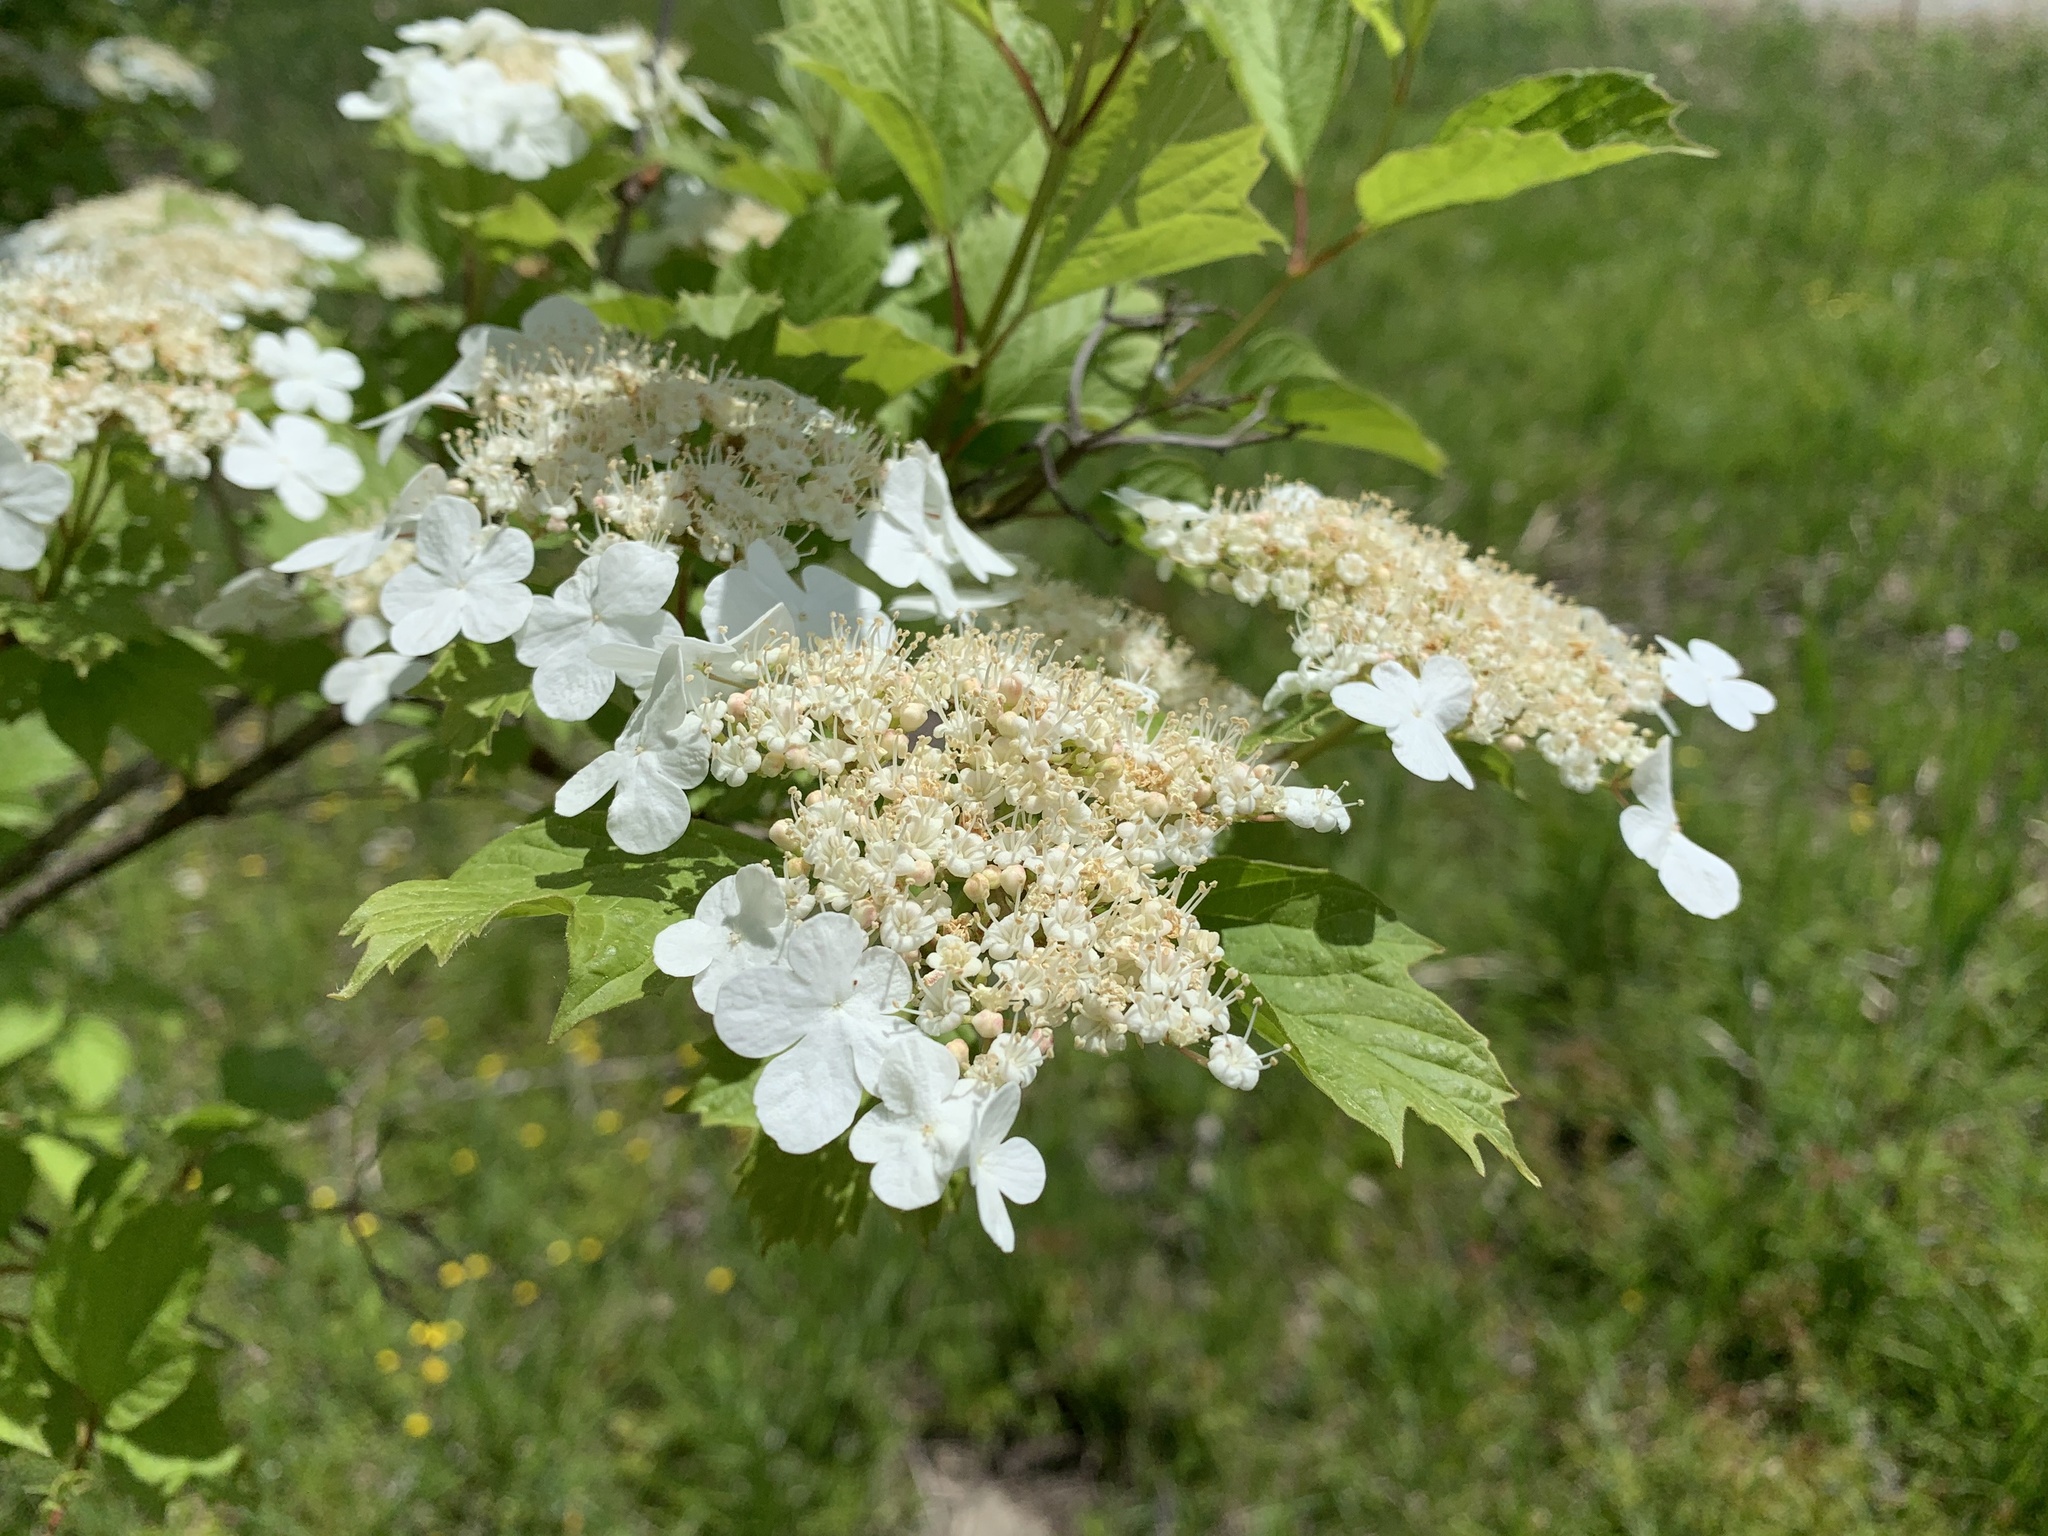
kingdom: Plantae
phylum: Tracheophyta
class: Magnoliopsida
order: Dipsacales
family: Viburnaceae
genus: Viburnum
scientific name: Viburnum opulus
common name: Guelder-rose
